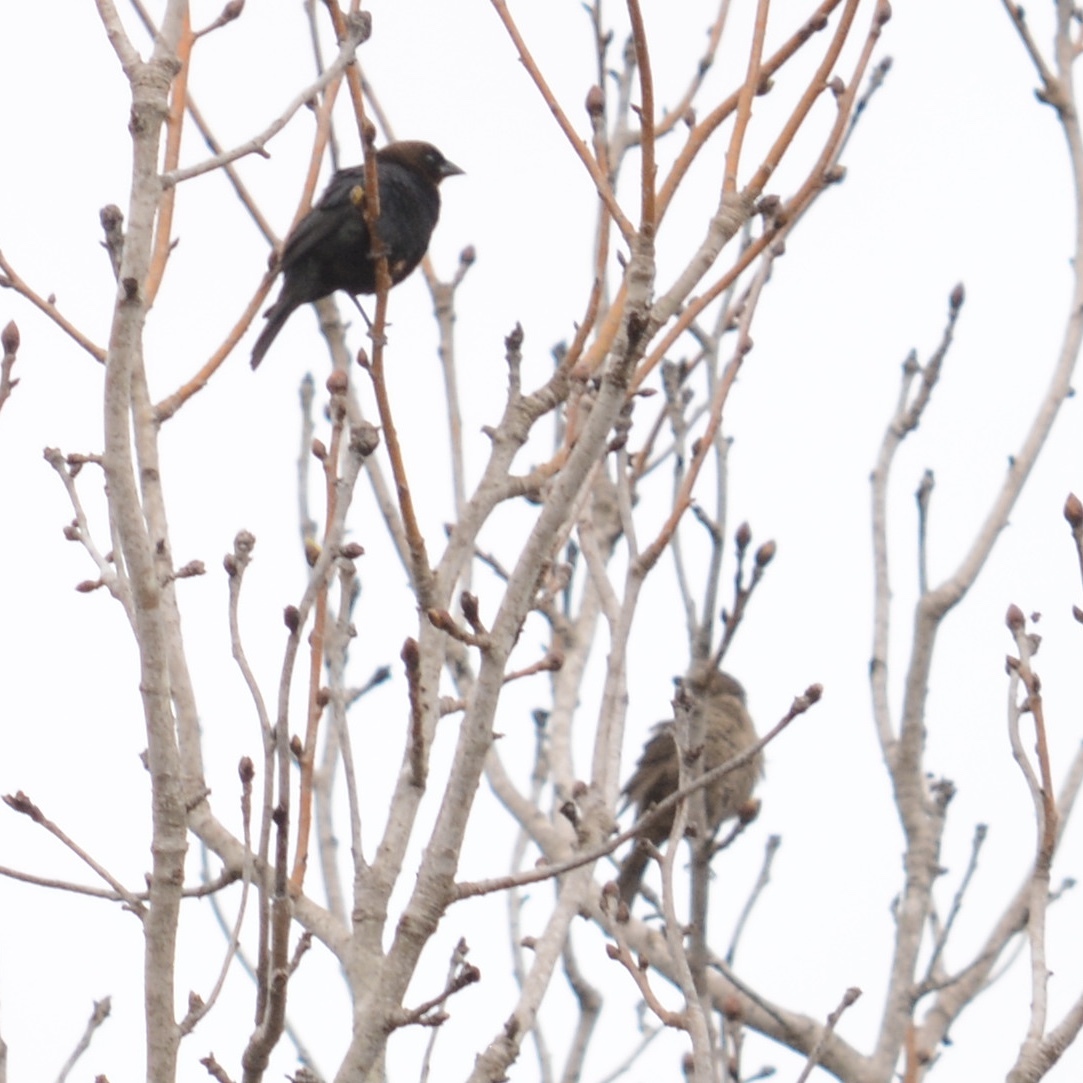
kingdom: Animalia
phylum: Chordata
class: Aves
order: Passeriformes
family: Icteridae
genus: Molothrus
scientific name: Molothrus ater
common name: Brown-headed cowbird
